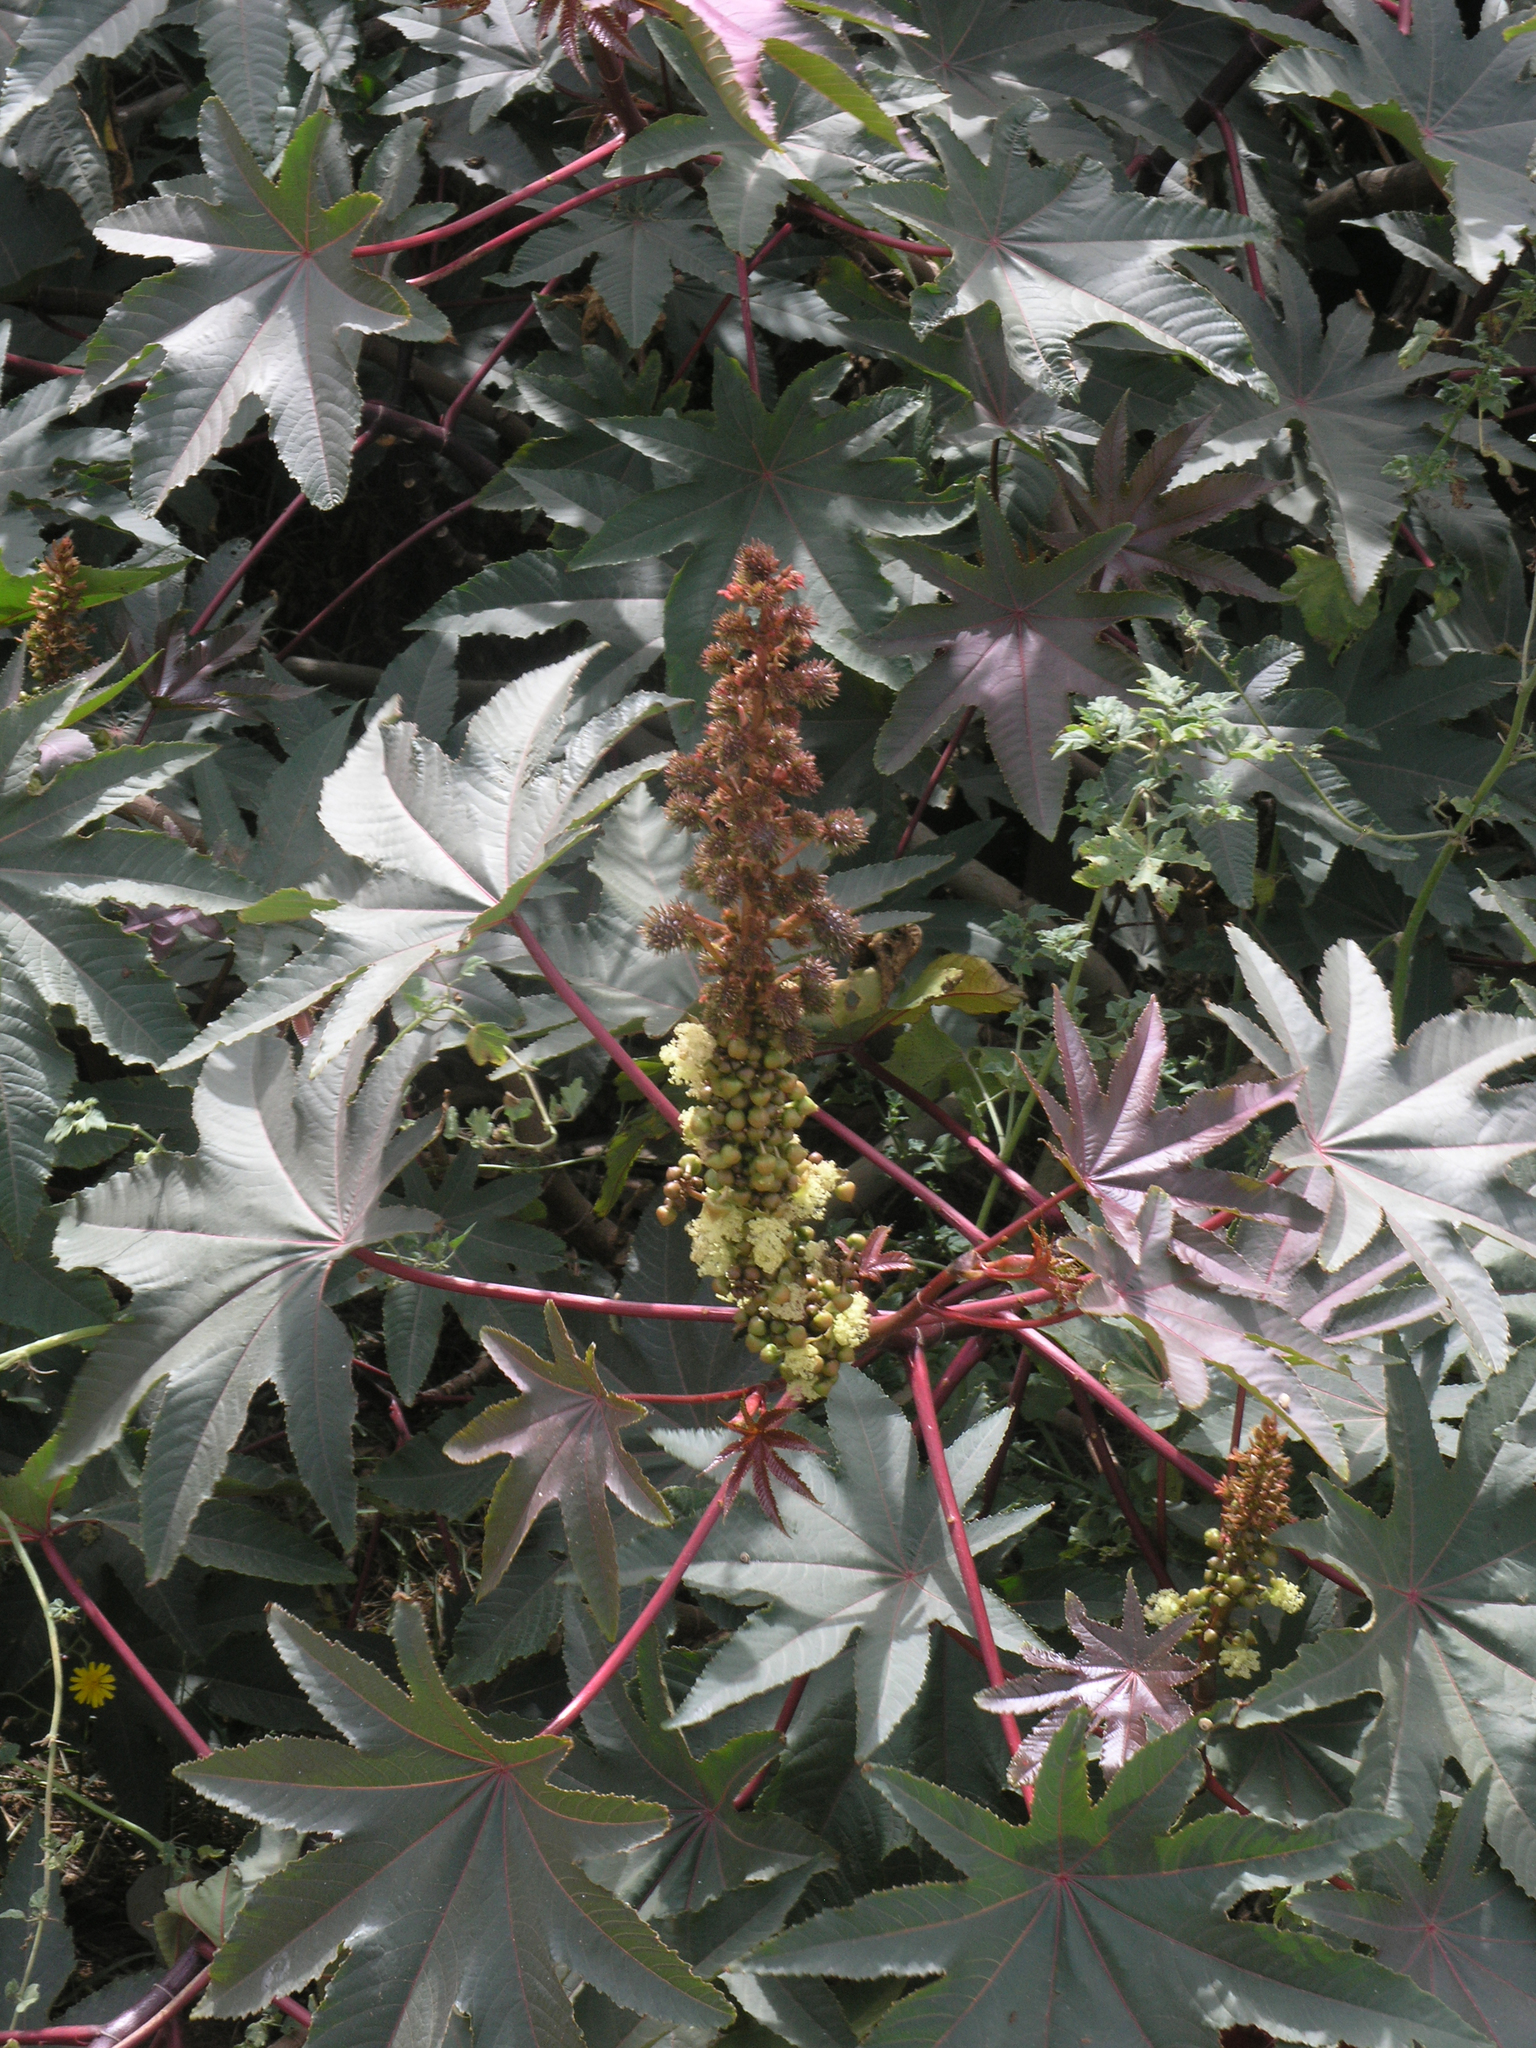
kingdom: Plantae
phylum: Tracheophyta
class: Magnoliopsida
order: Malpighiales
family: Euphorbiaceae
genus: Ricinus
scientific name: Ricinus communis
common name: Castor-oil-plant
